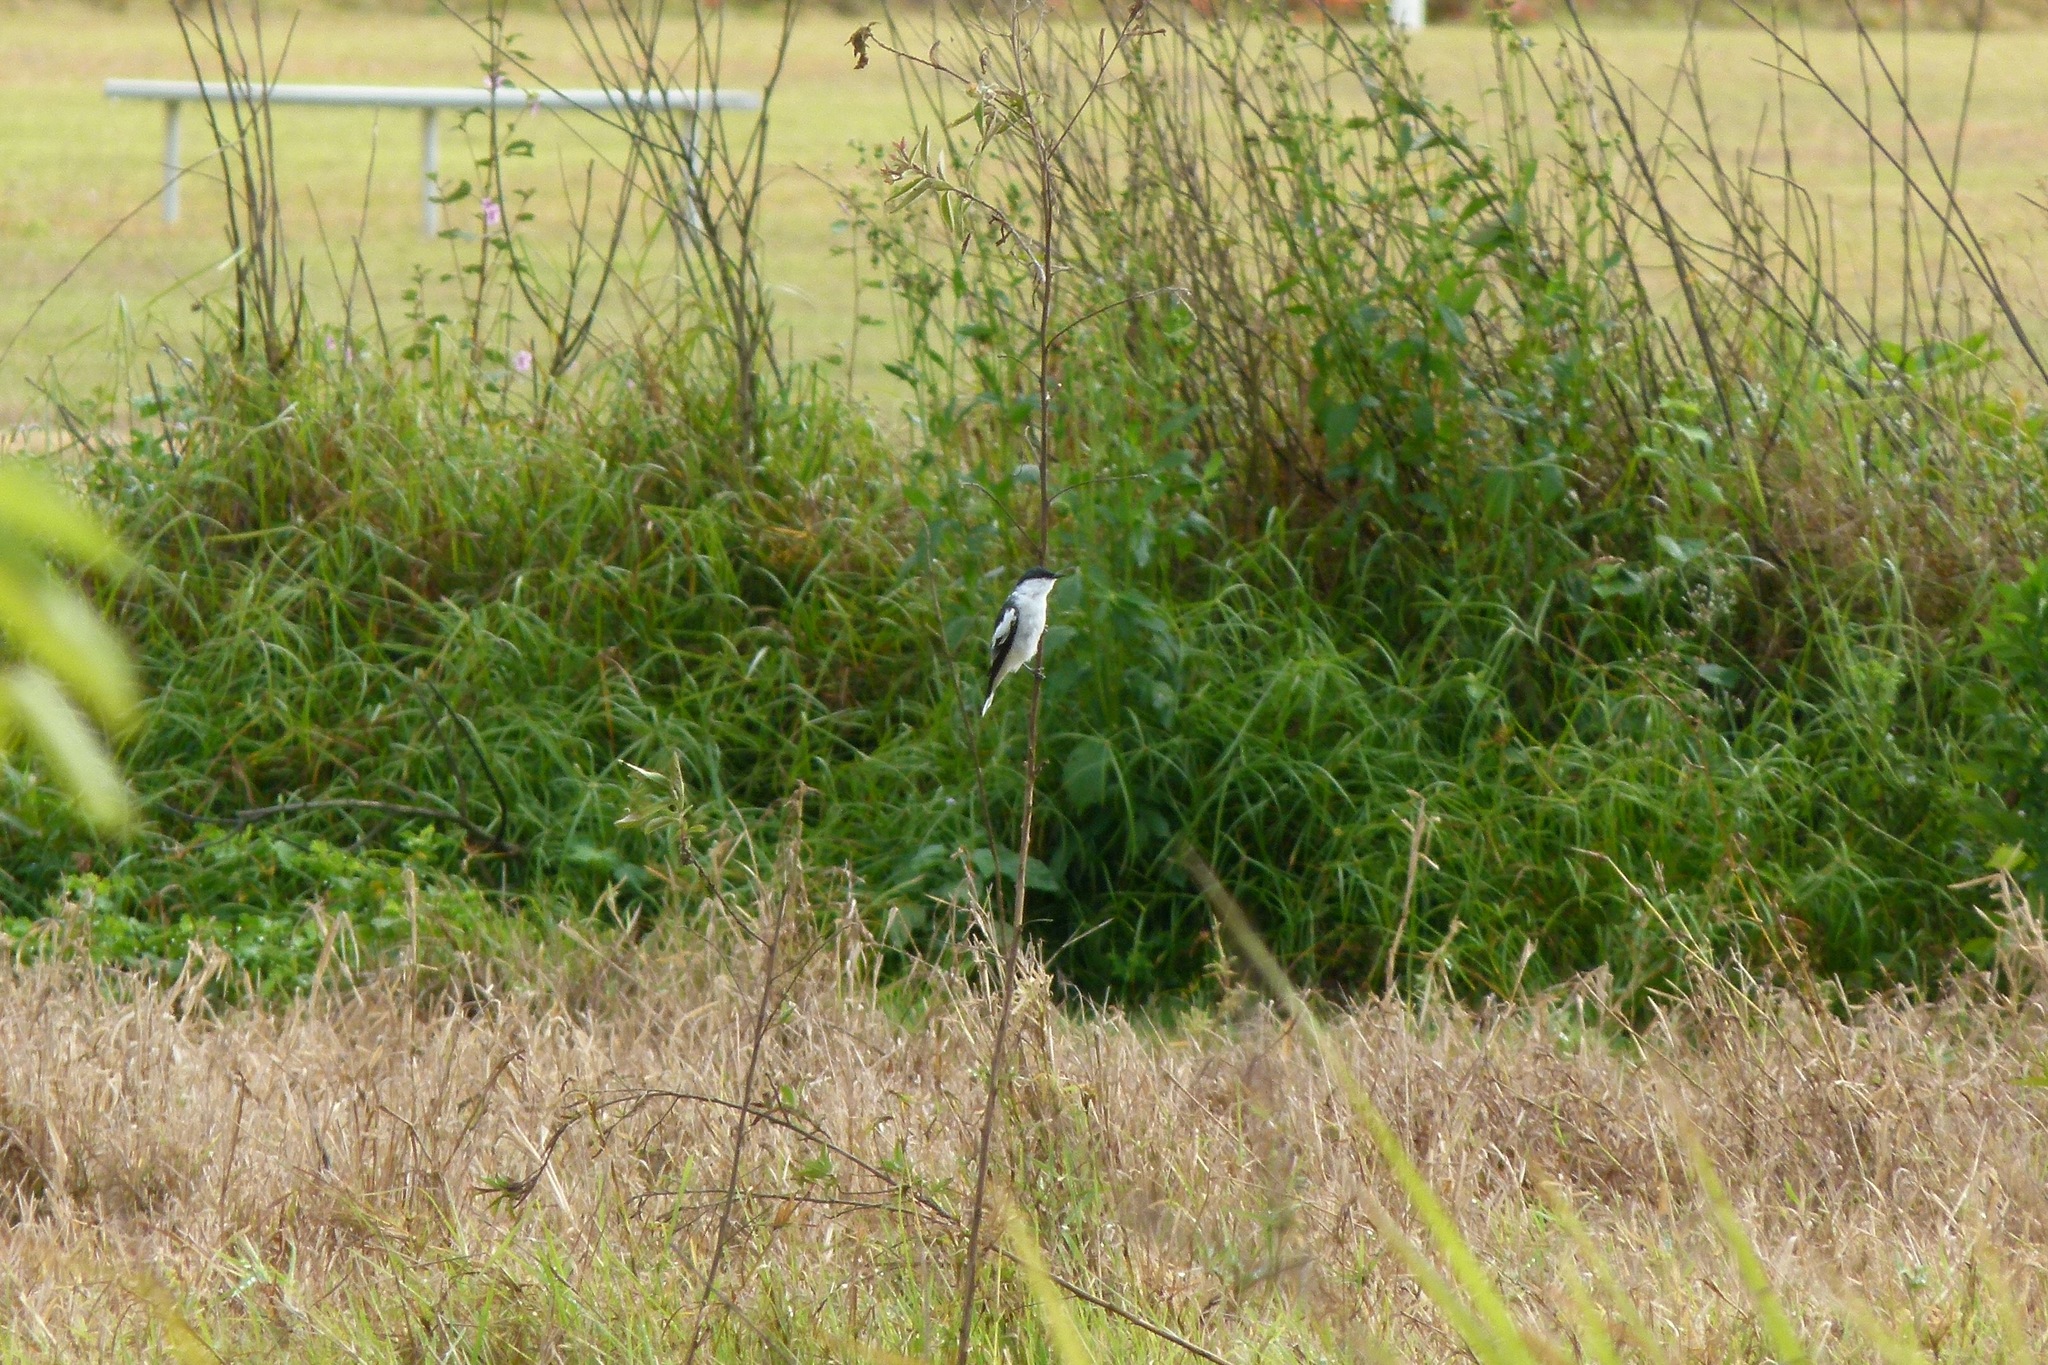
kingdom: Animalia
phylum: Chordata
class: Aves
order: Passeriformes
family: Campephagidae
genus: Lalage
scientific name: Lalage tricolor
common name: White-winged triller
